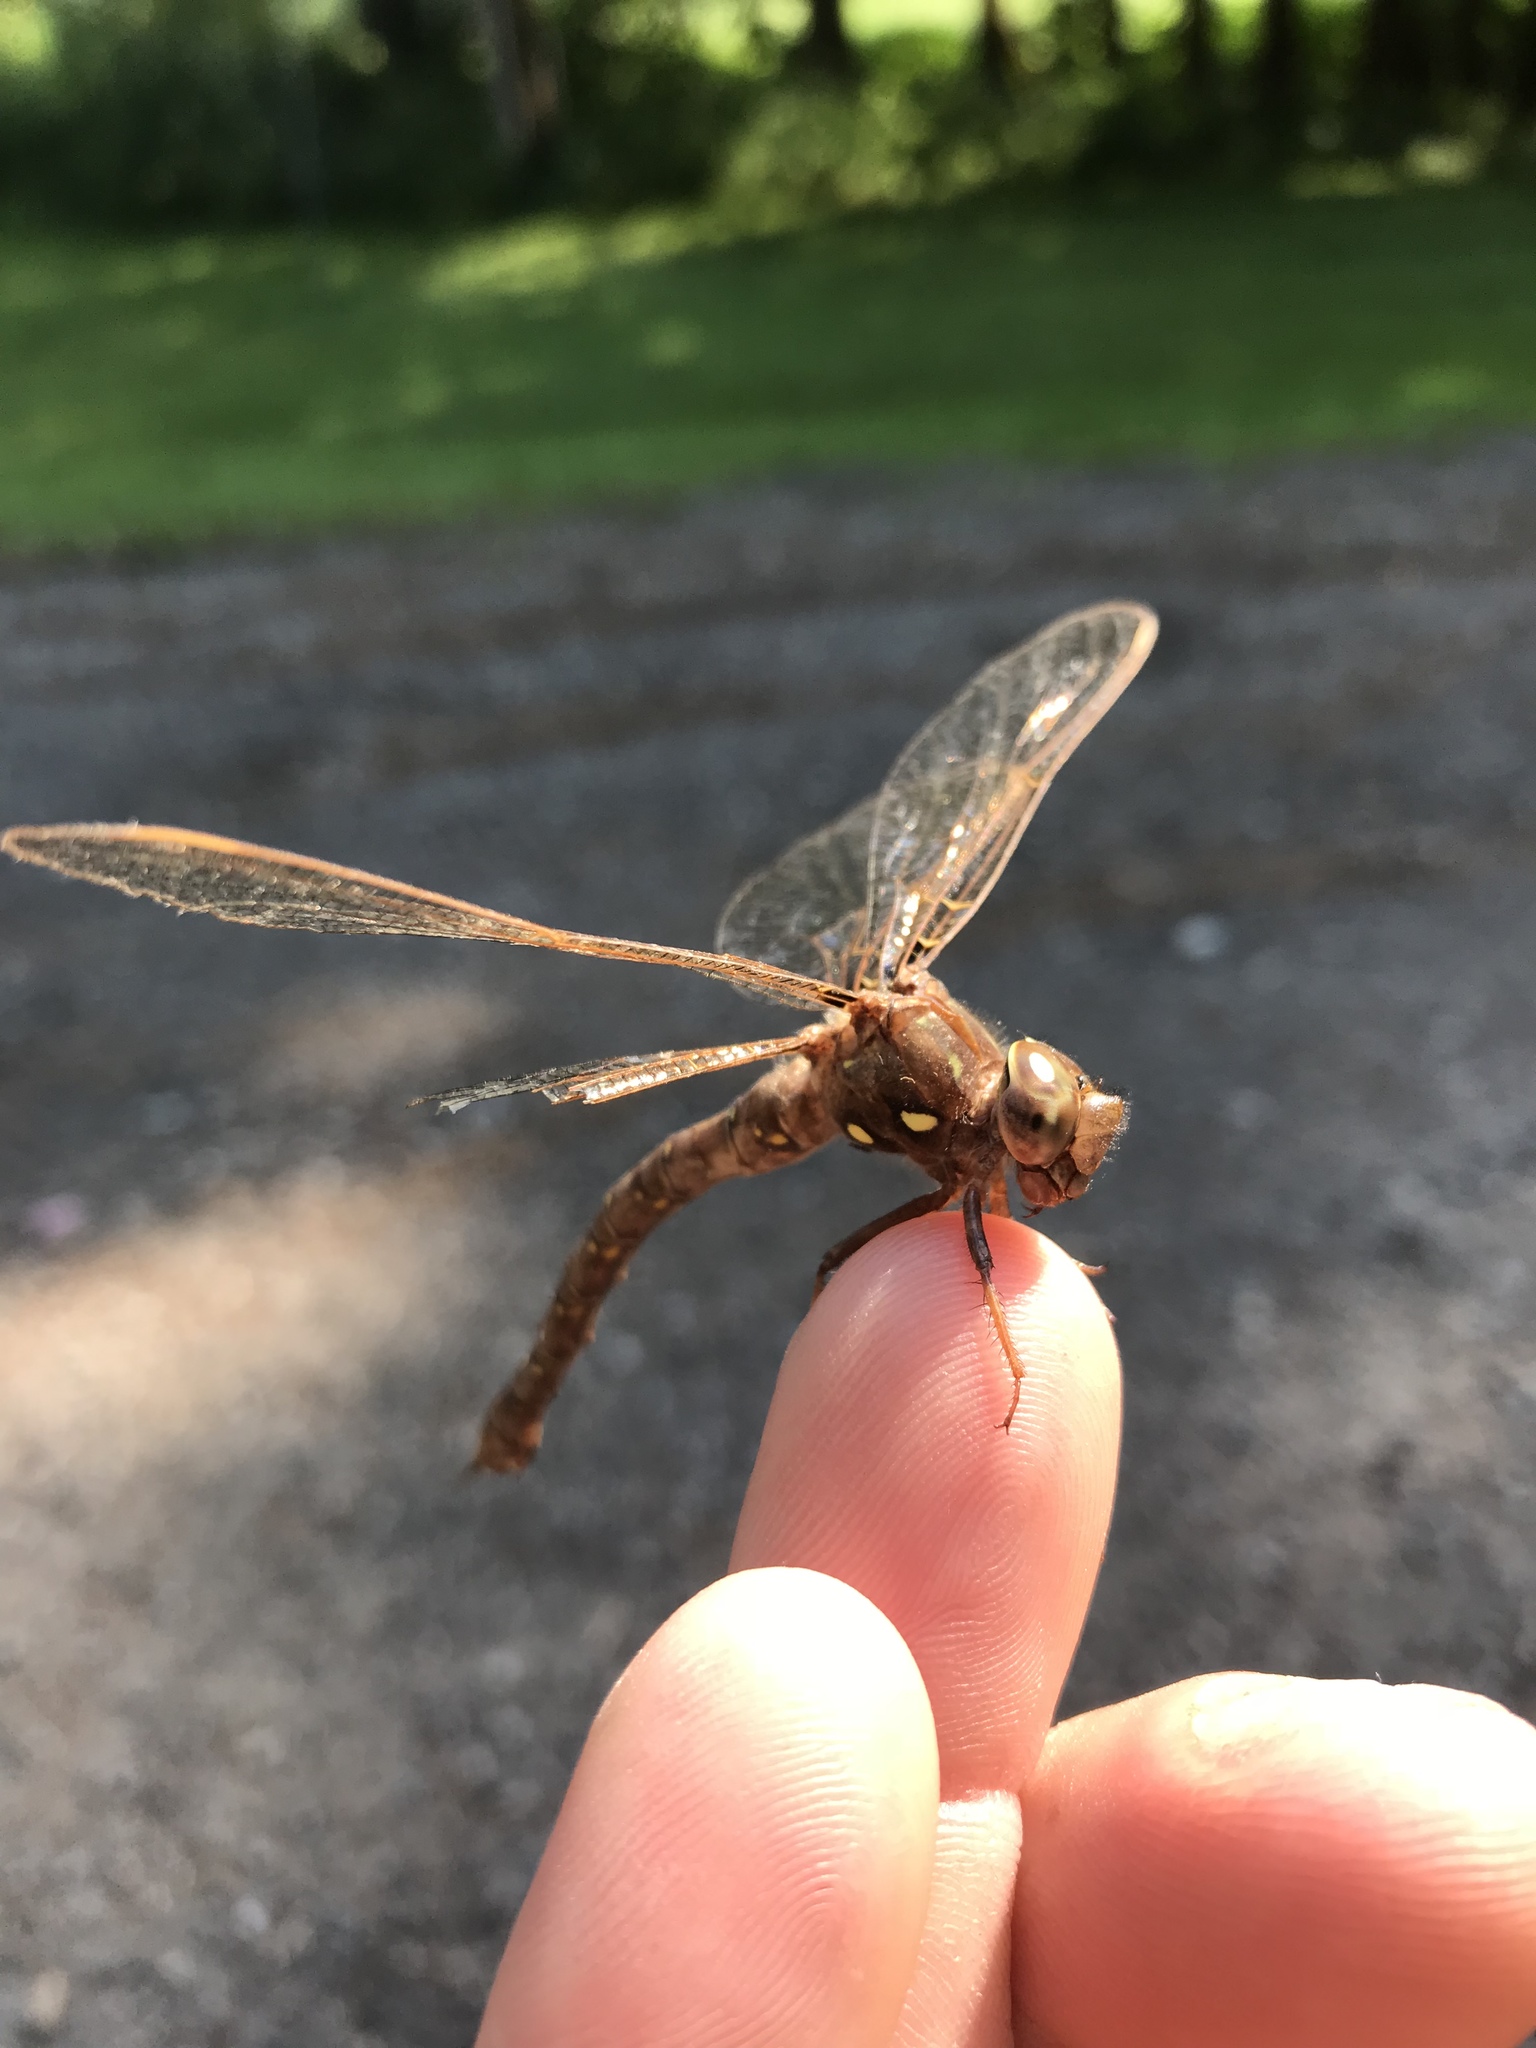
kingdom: Animalia
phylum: Arthropoda
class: Insecta
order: Odonata
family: Aeshnidae
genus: Boyeria
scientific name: Boyeria vinosa
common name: Fawn darner
